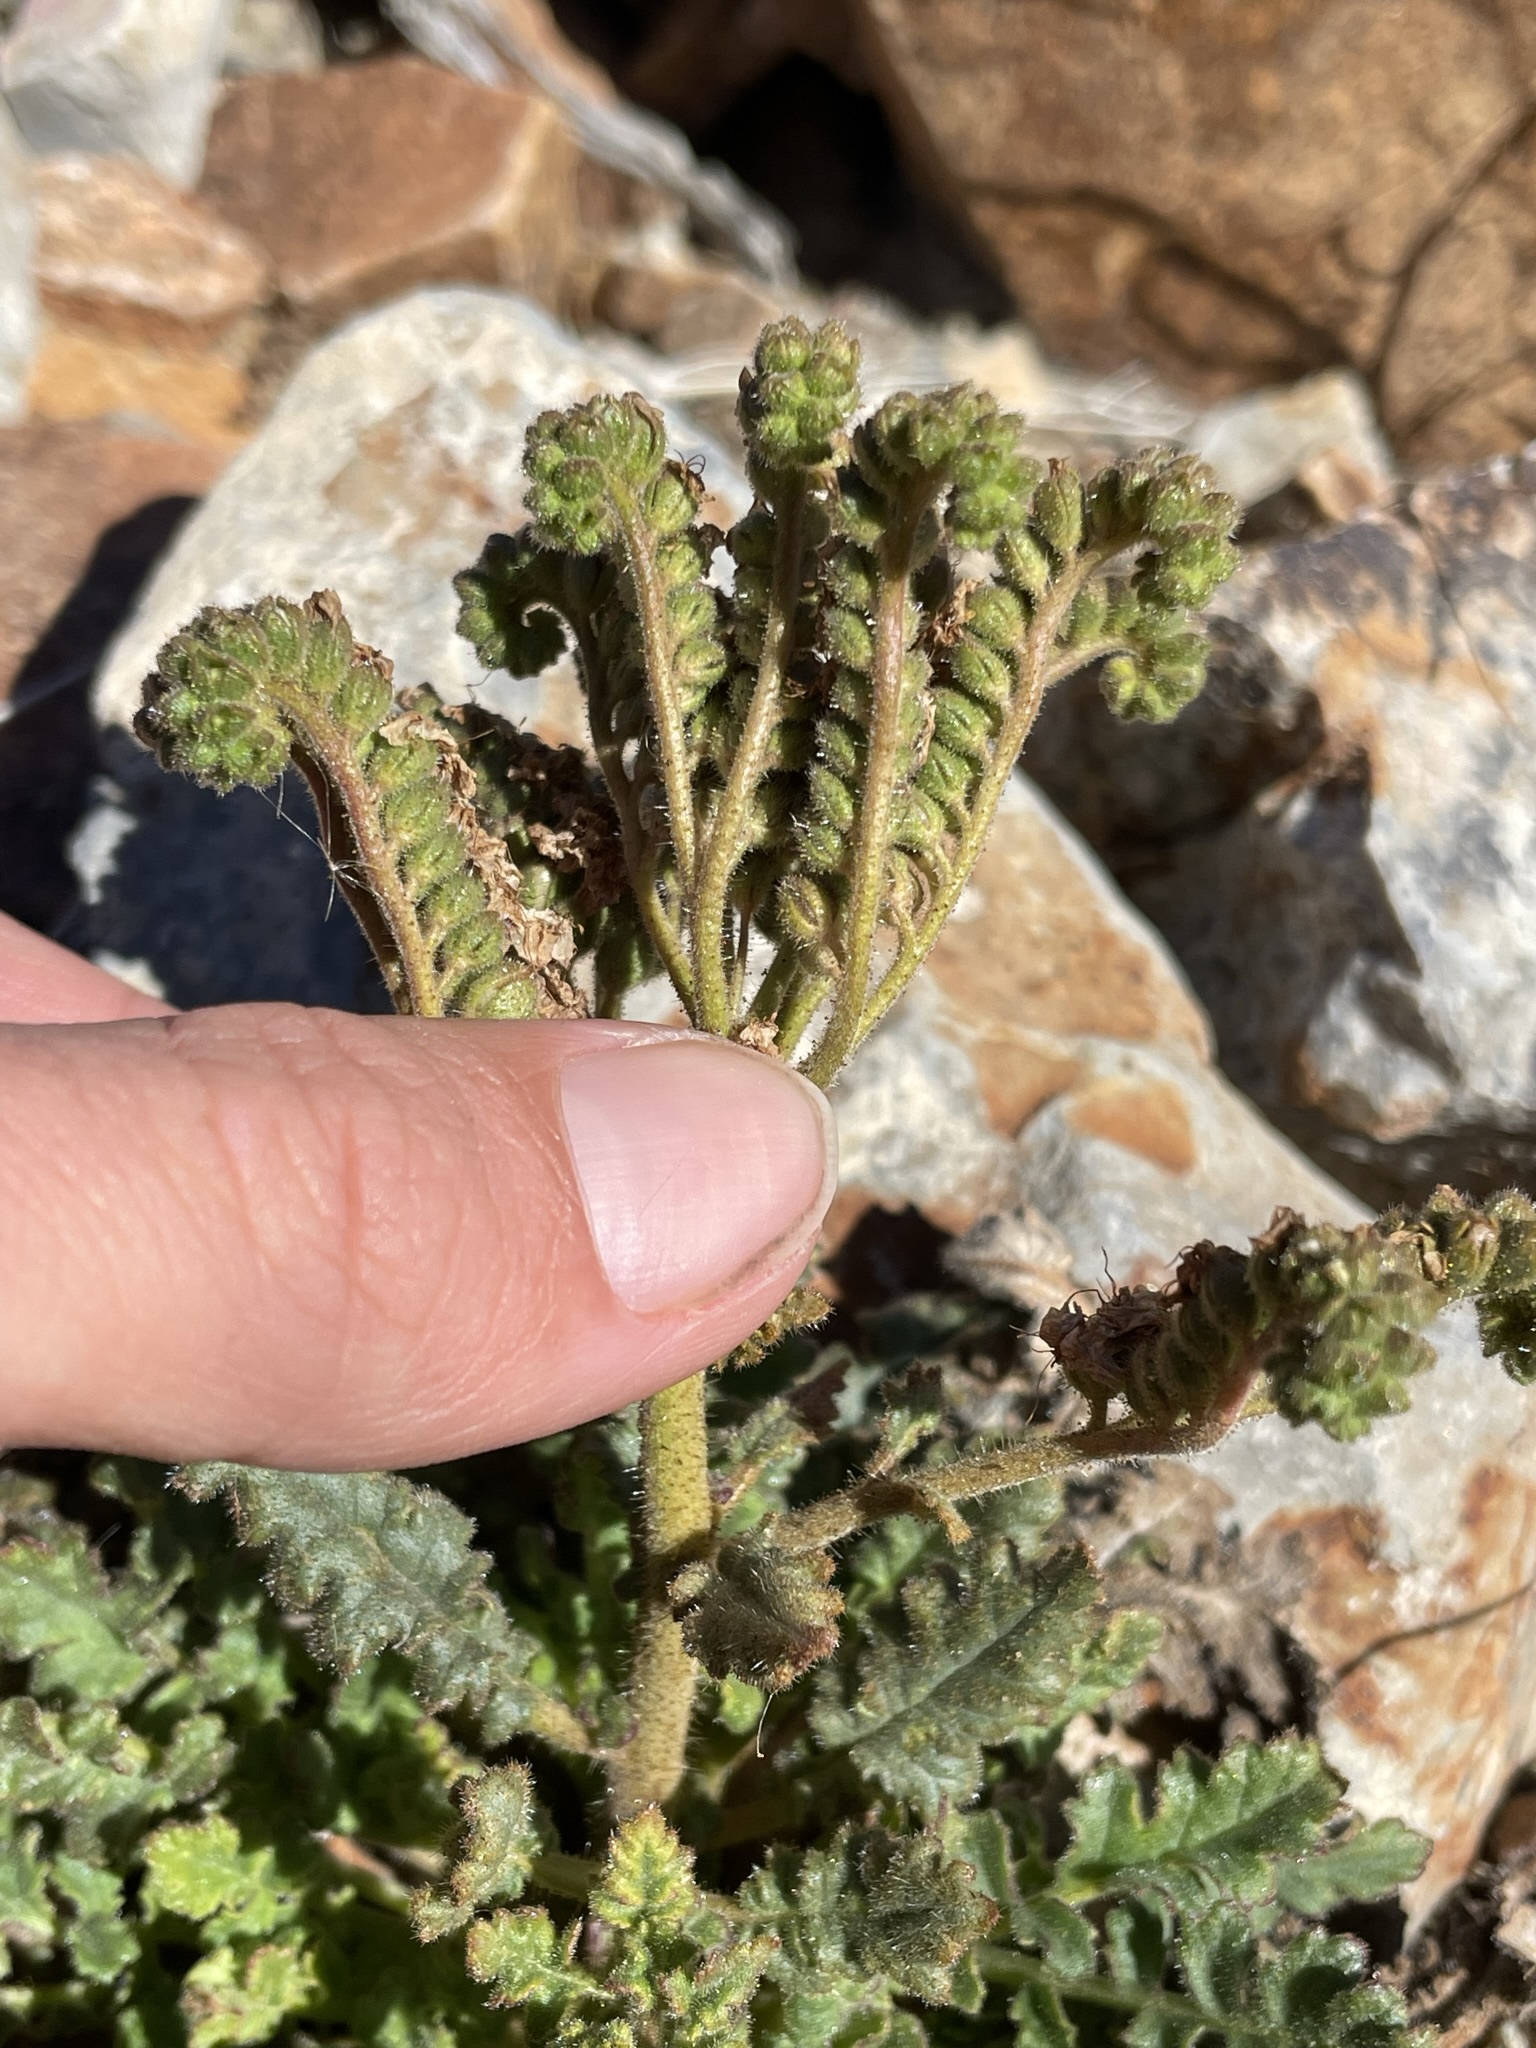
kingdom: Plantae
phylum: Tracheophyta
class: Magnoliopsida
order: Boraginales
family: Hydrophyllaceae
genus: Phacelia
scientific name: Phacelia crenulata
